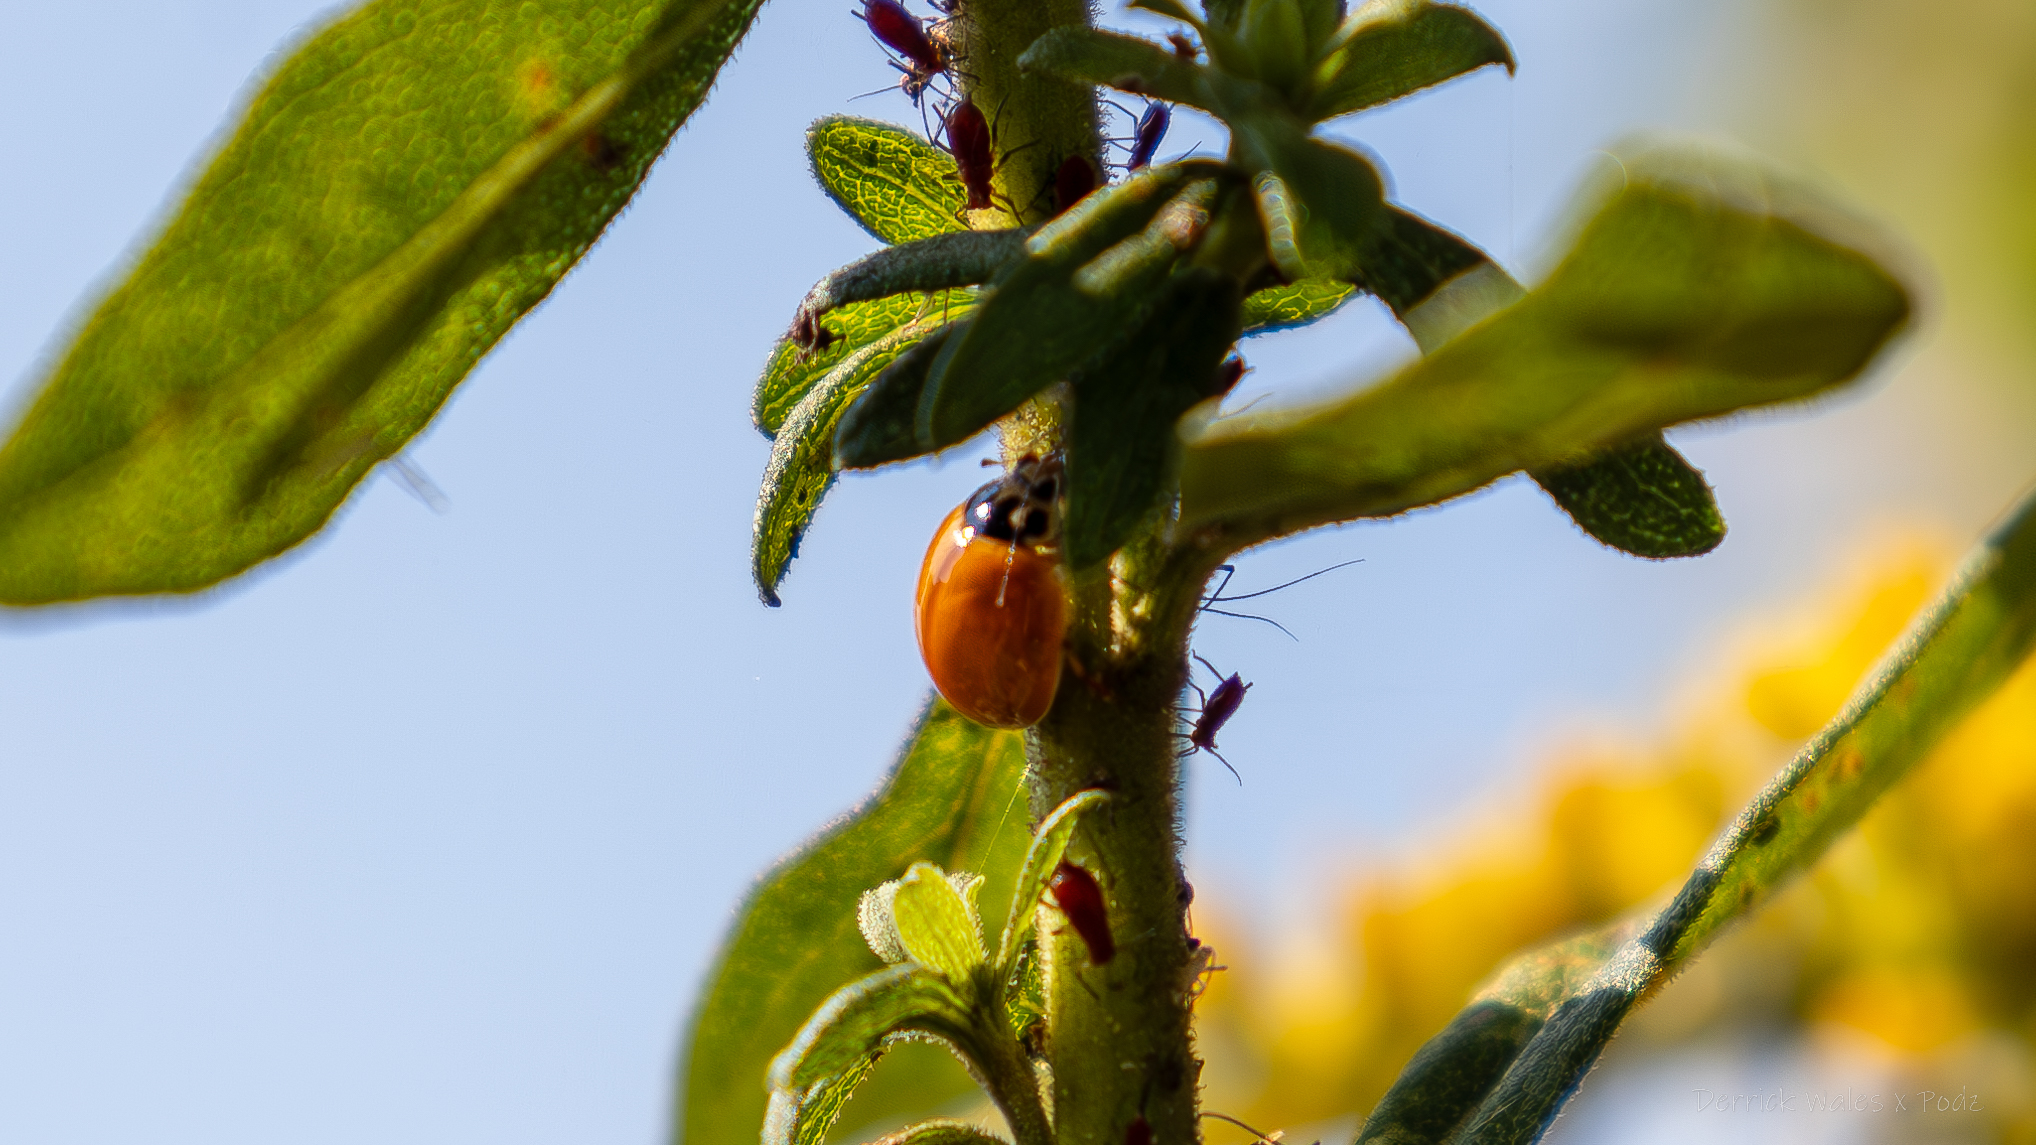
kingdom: Animalia
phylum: Arthropoda
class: Insecta
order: Coleoptera
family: Coccinellidae
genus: Cycloneda
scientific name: Cycloneda munda
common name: Polished lady beetle
